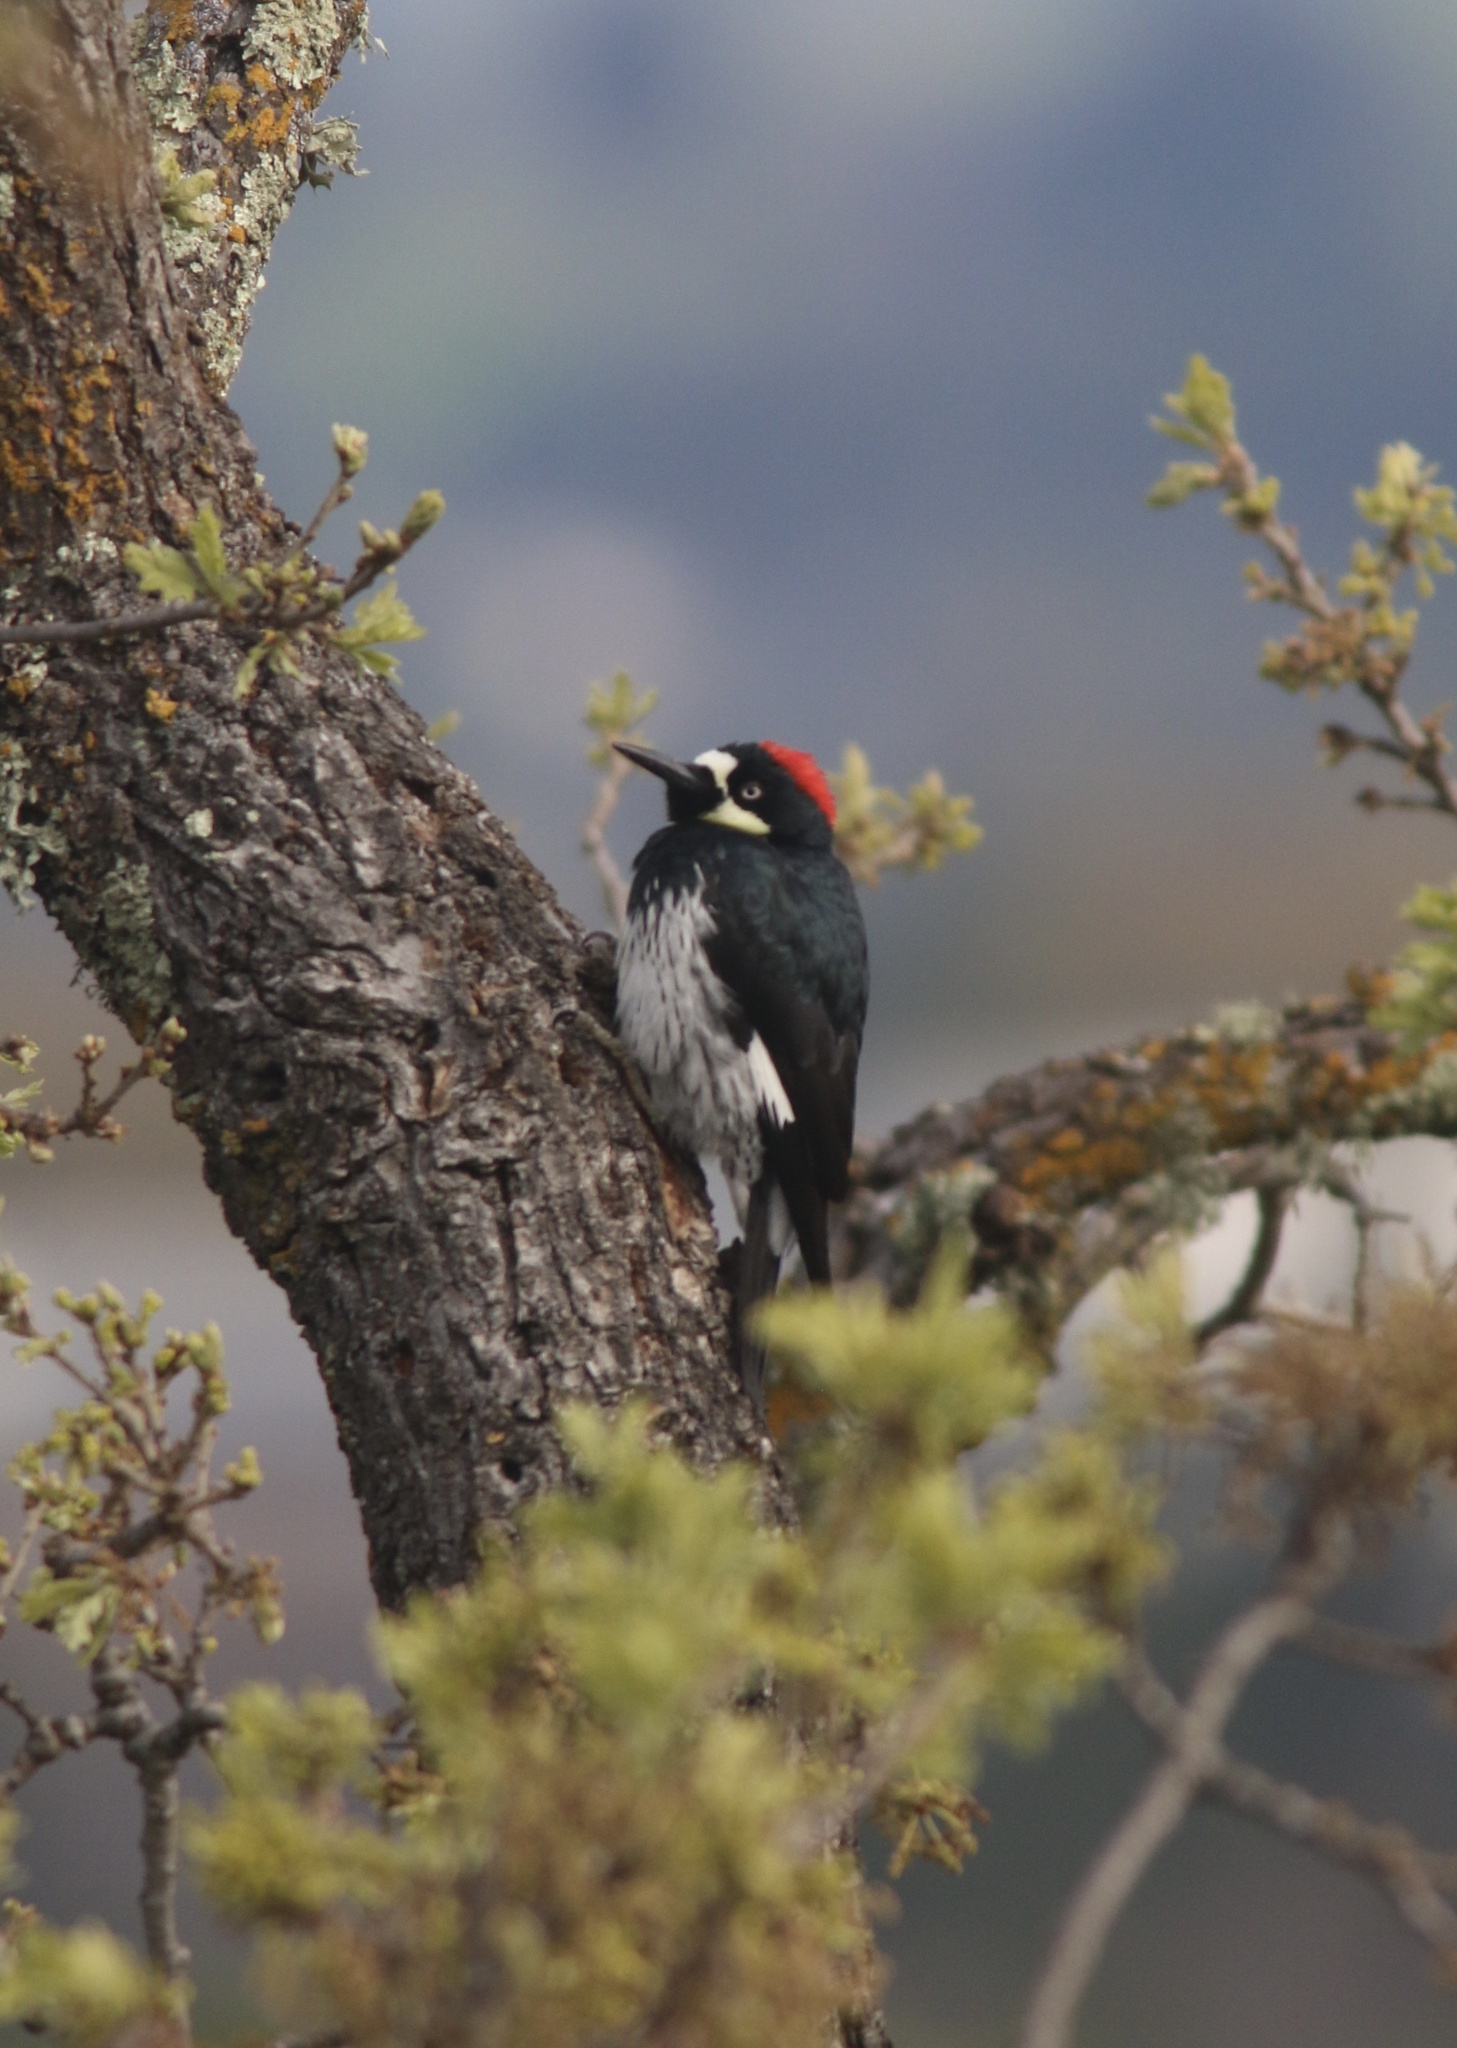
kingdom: Animalia
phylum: Chordata
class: Aves
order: Piciformes
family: Picidae
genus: Melanerpes
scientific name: Melanerpes formicivorus
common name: Acorn woodpecker
